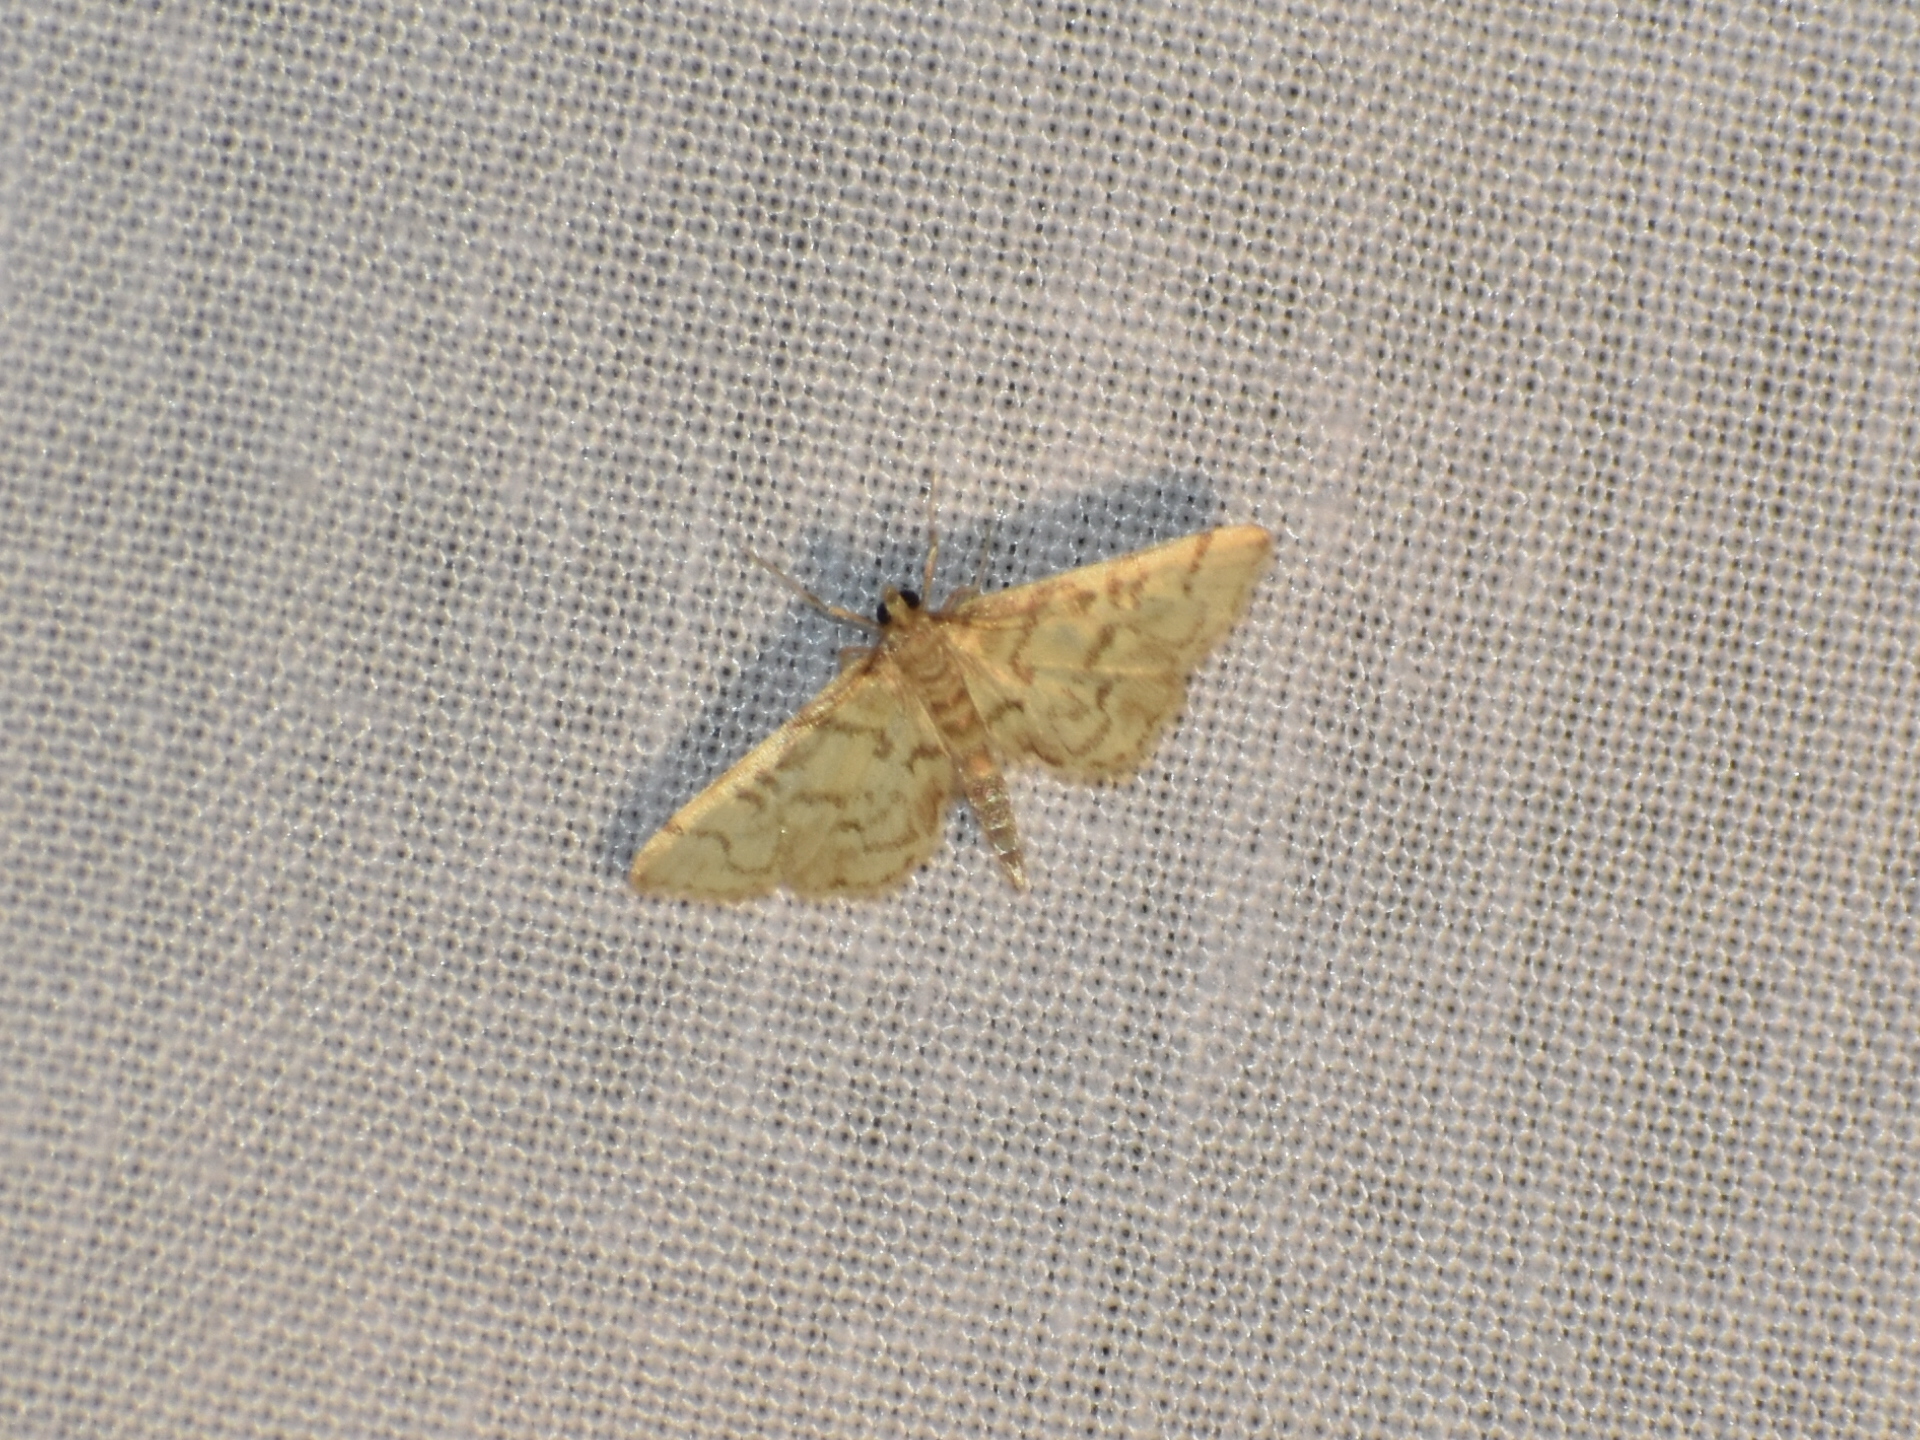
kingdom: Animalia
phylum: Arthropoda
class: Insecta
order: Lepidoptera
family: Crambidae
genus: Lamprosema
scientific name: Lamprosema Blepharomastix ranalis
